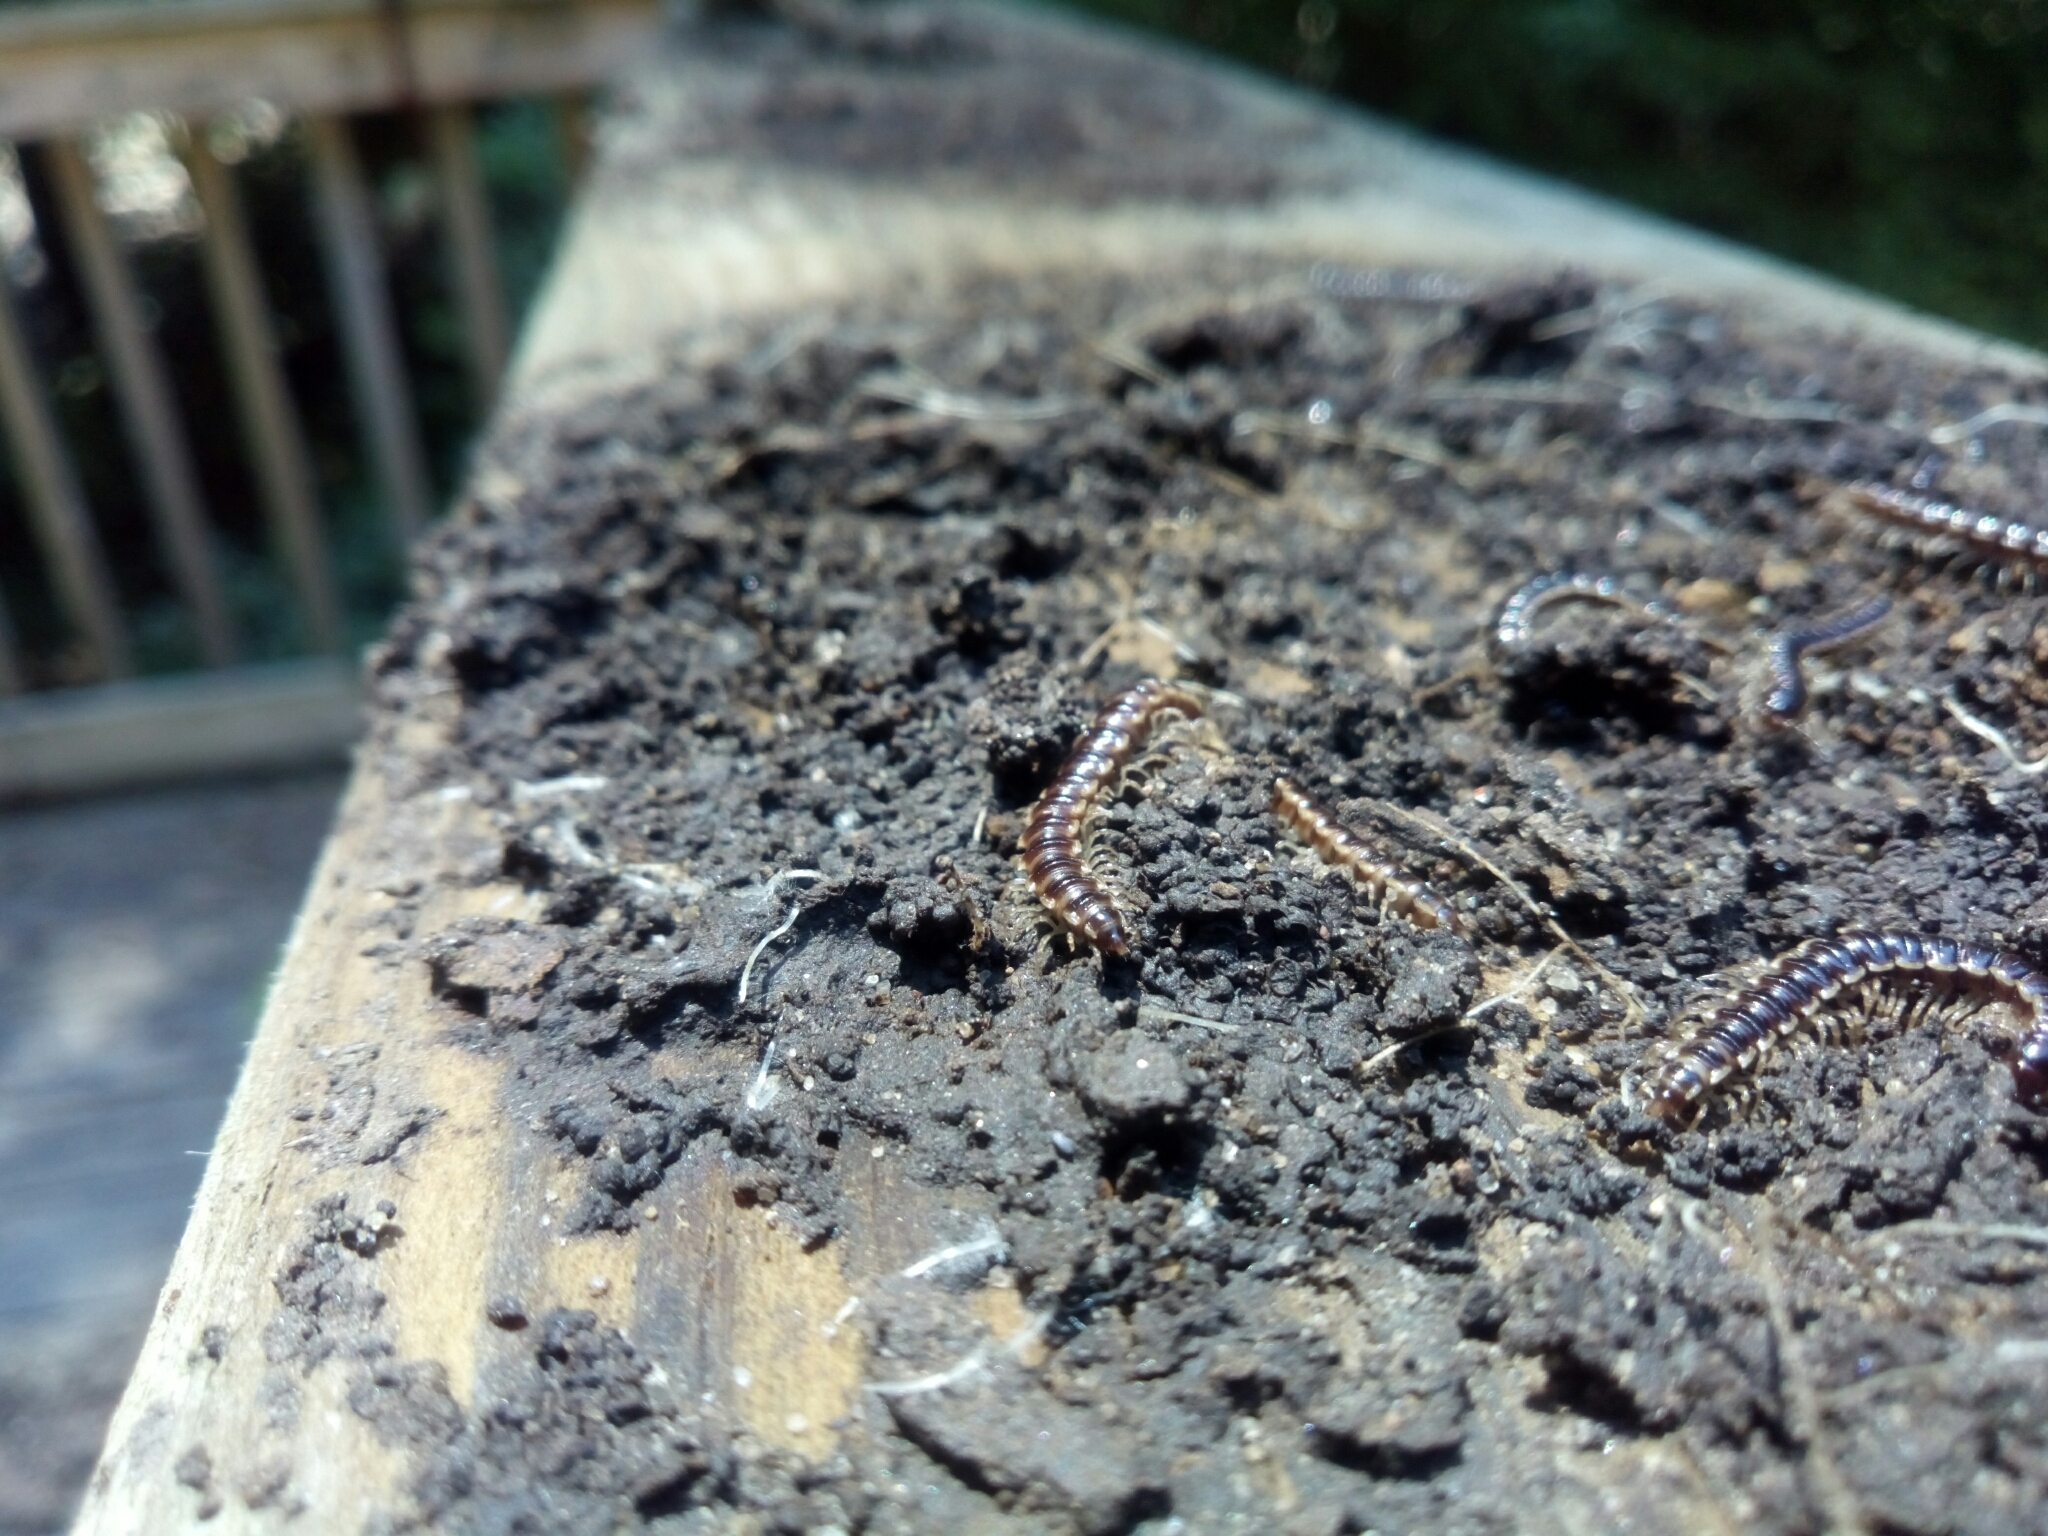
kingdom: Animalia
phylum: Arthropoda
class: Diplopoda
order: Polydesmida
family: Paradoxosomatidae
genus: Oxidus
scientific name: Oxidus gracilis
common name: Greenhouse millipede
